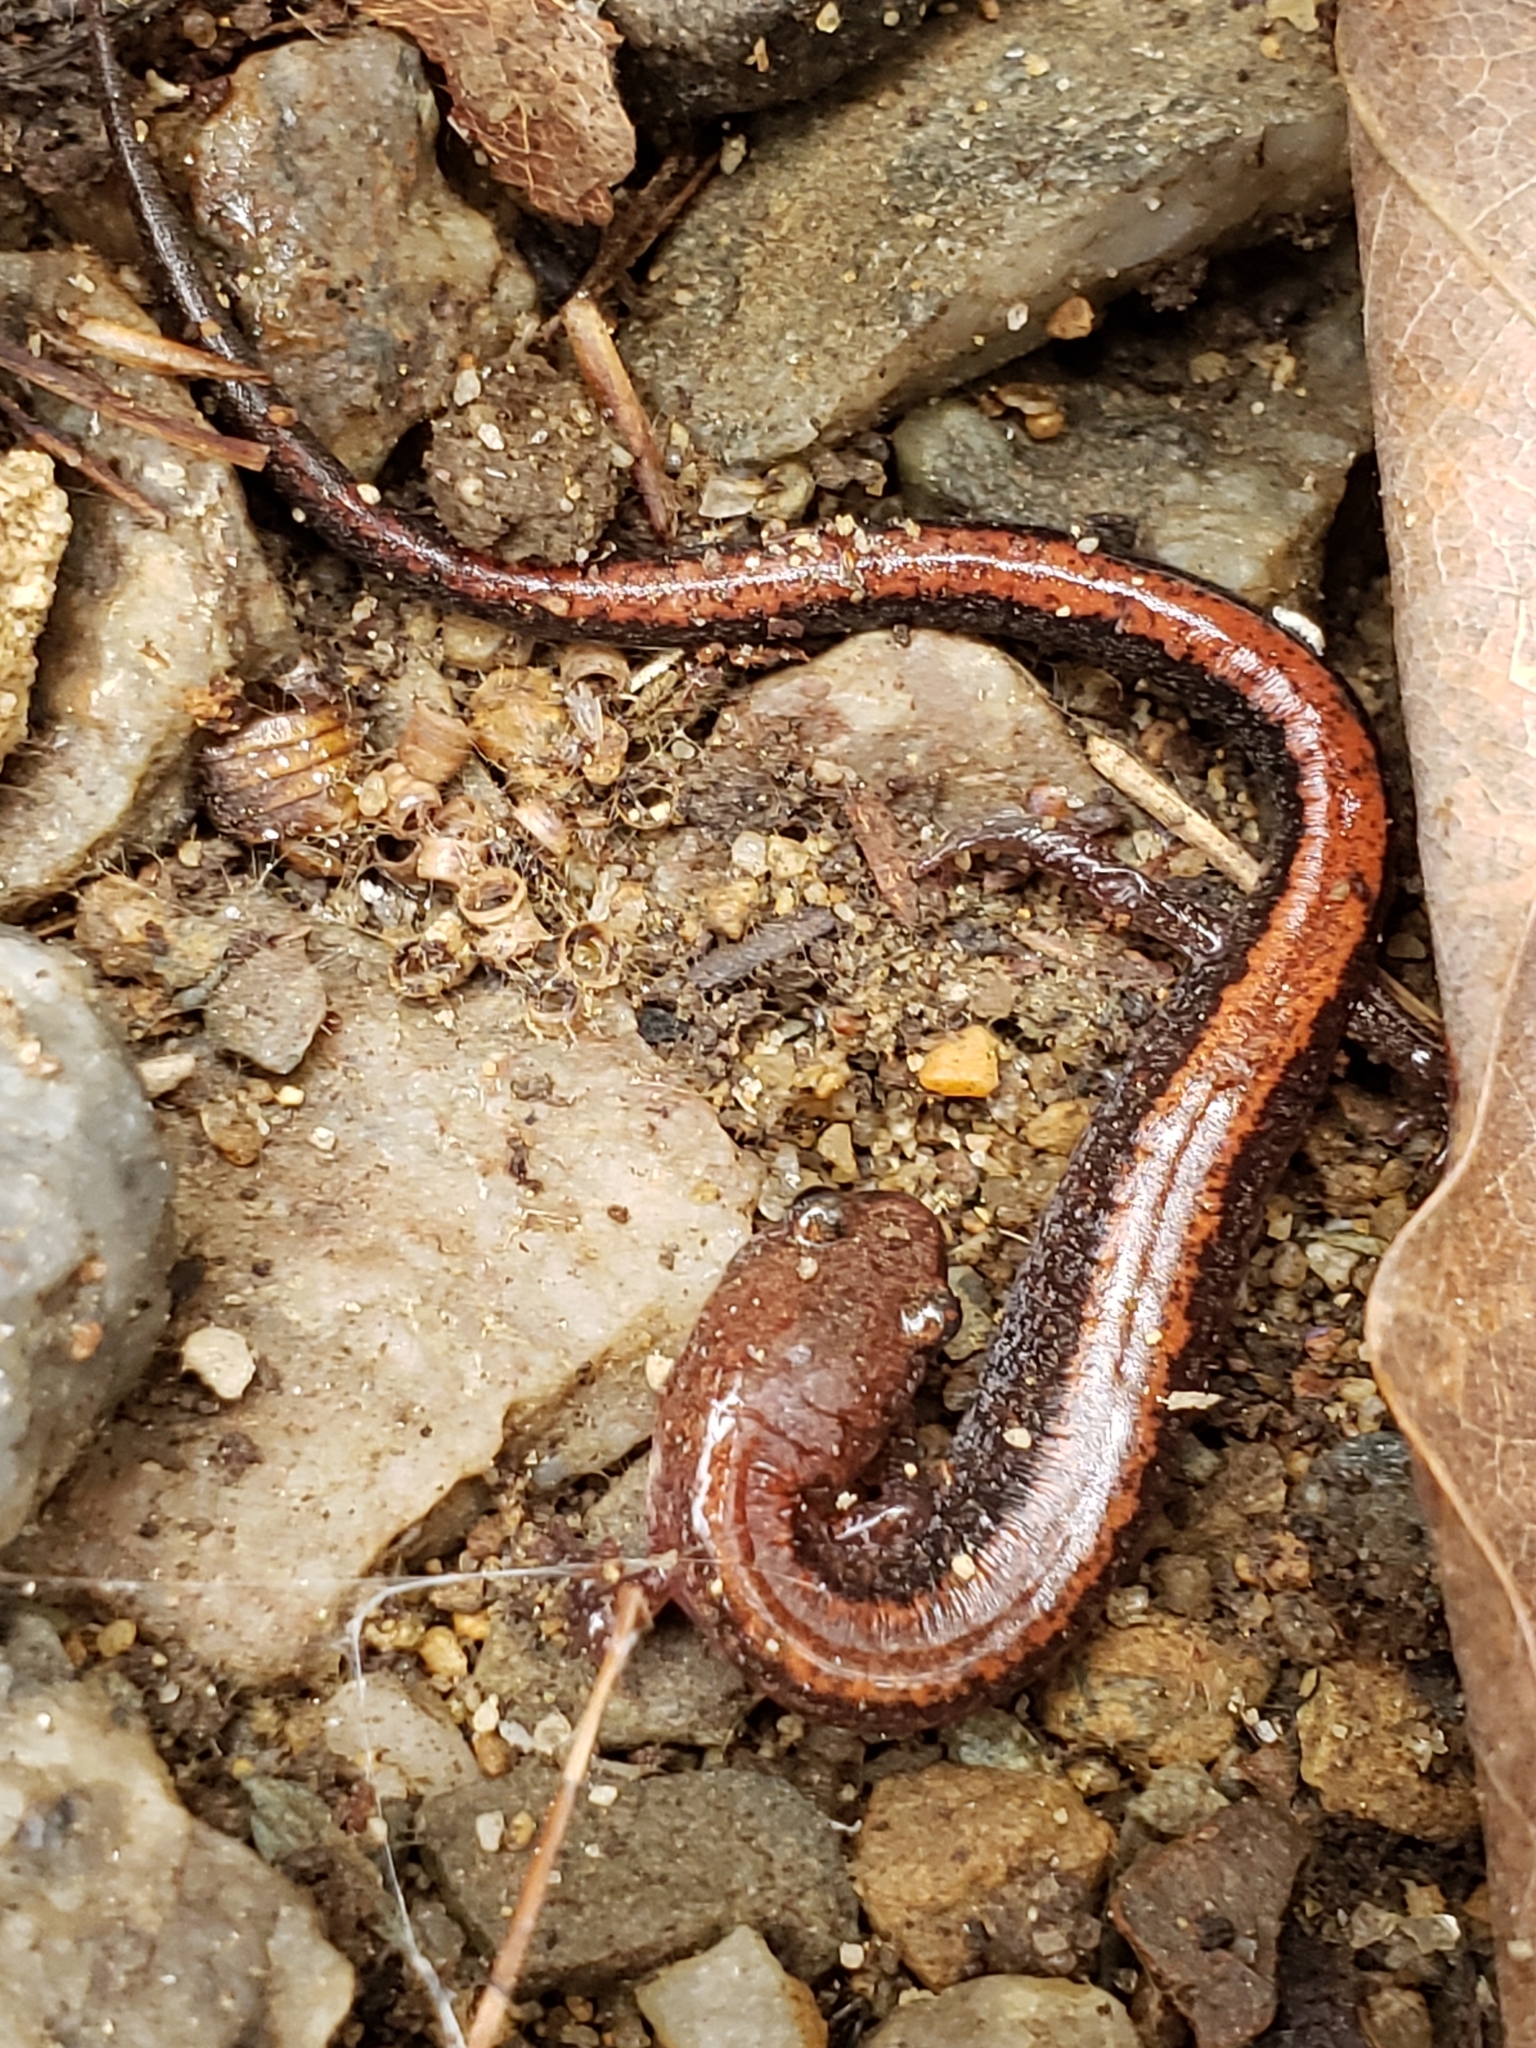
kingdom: Animalia
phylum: Chordata
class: Amphibia
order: Caudata
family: Plethodontidae
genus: Plethodon
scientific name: Plethodon cinereus
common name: Redback salamander
